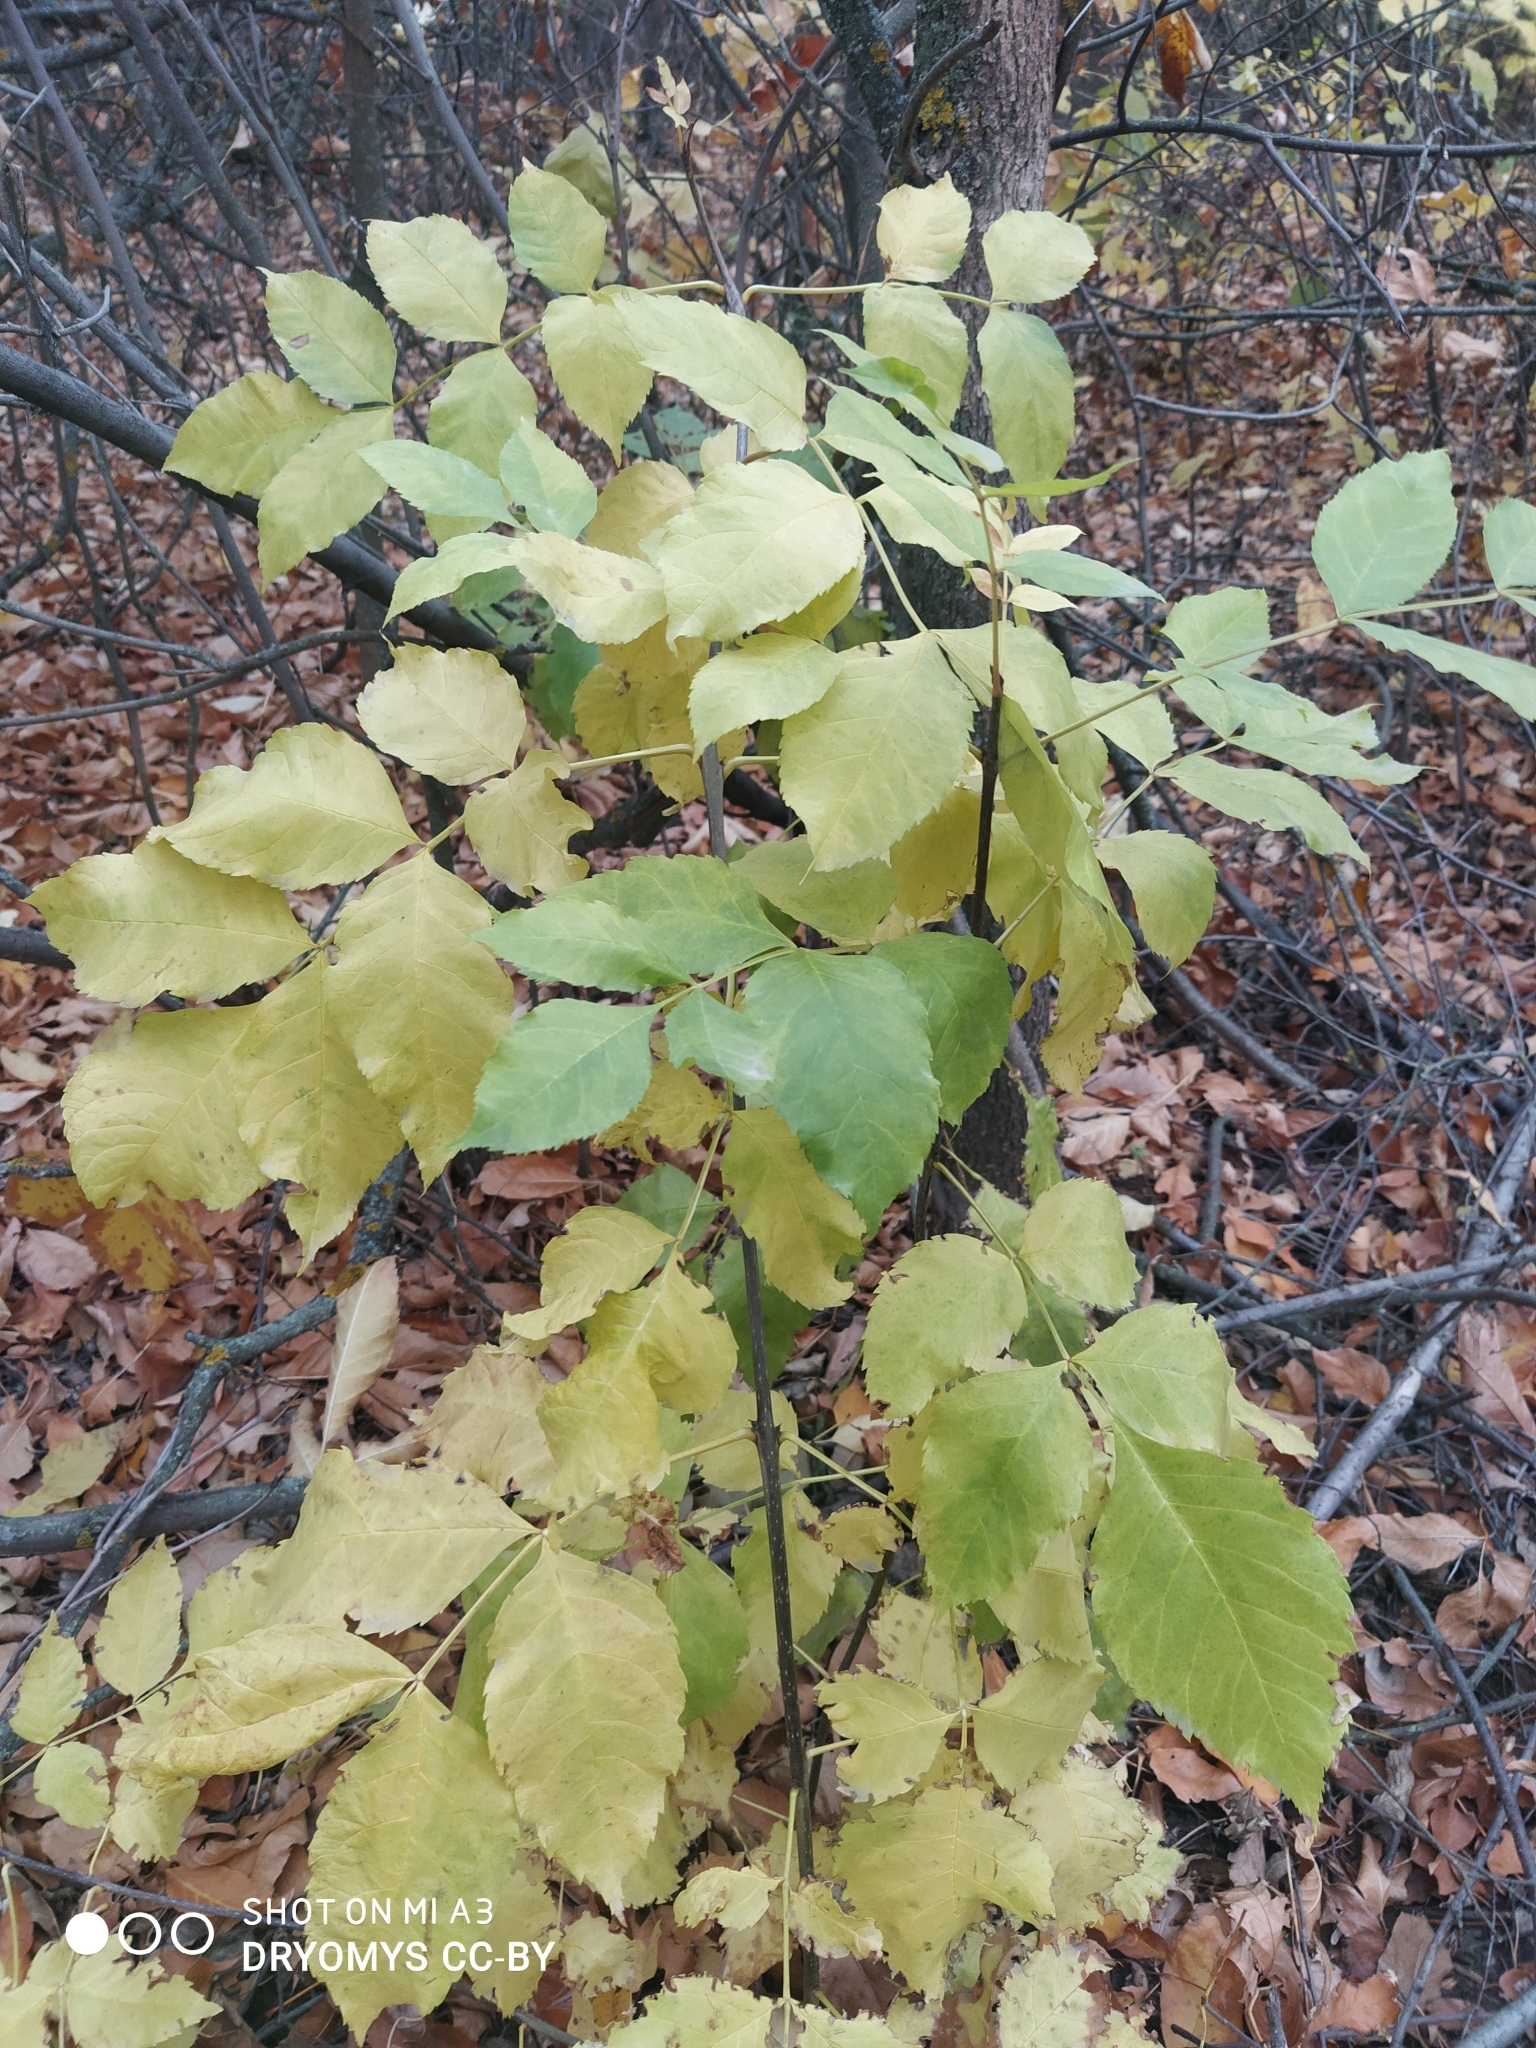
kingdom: Plantae
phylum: Tracheophyta
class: Magnoliopsida
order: Lamiales
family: Oleaceae
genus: Fraxinus
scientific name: Fraxinus pennsylvanica
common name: Green ash
